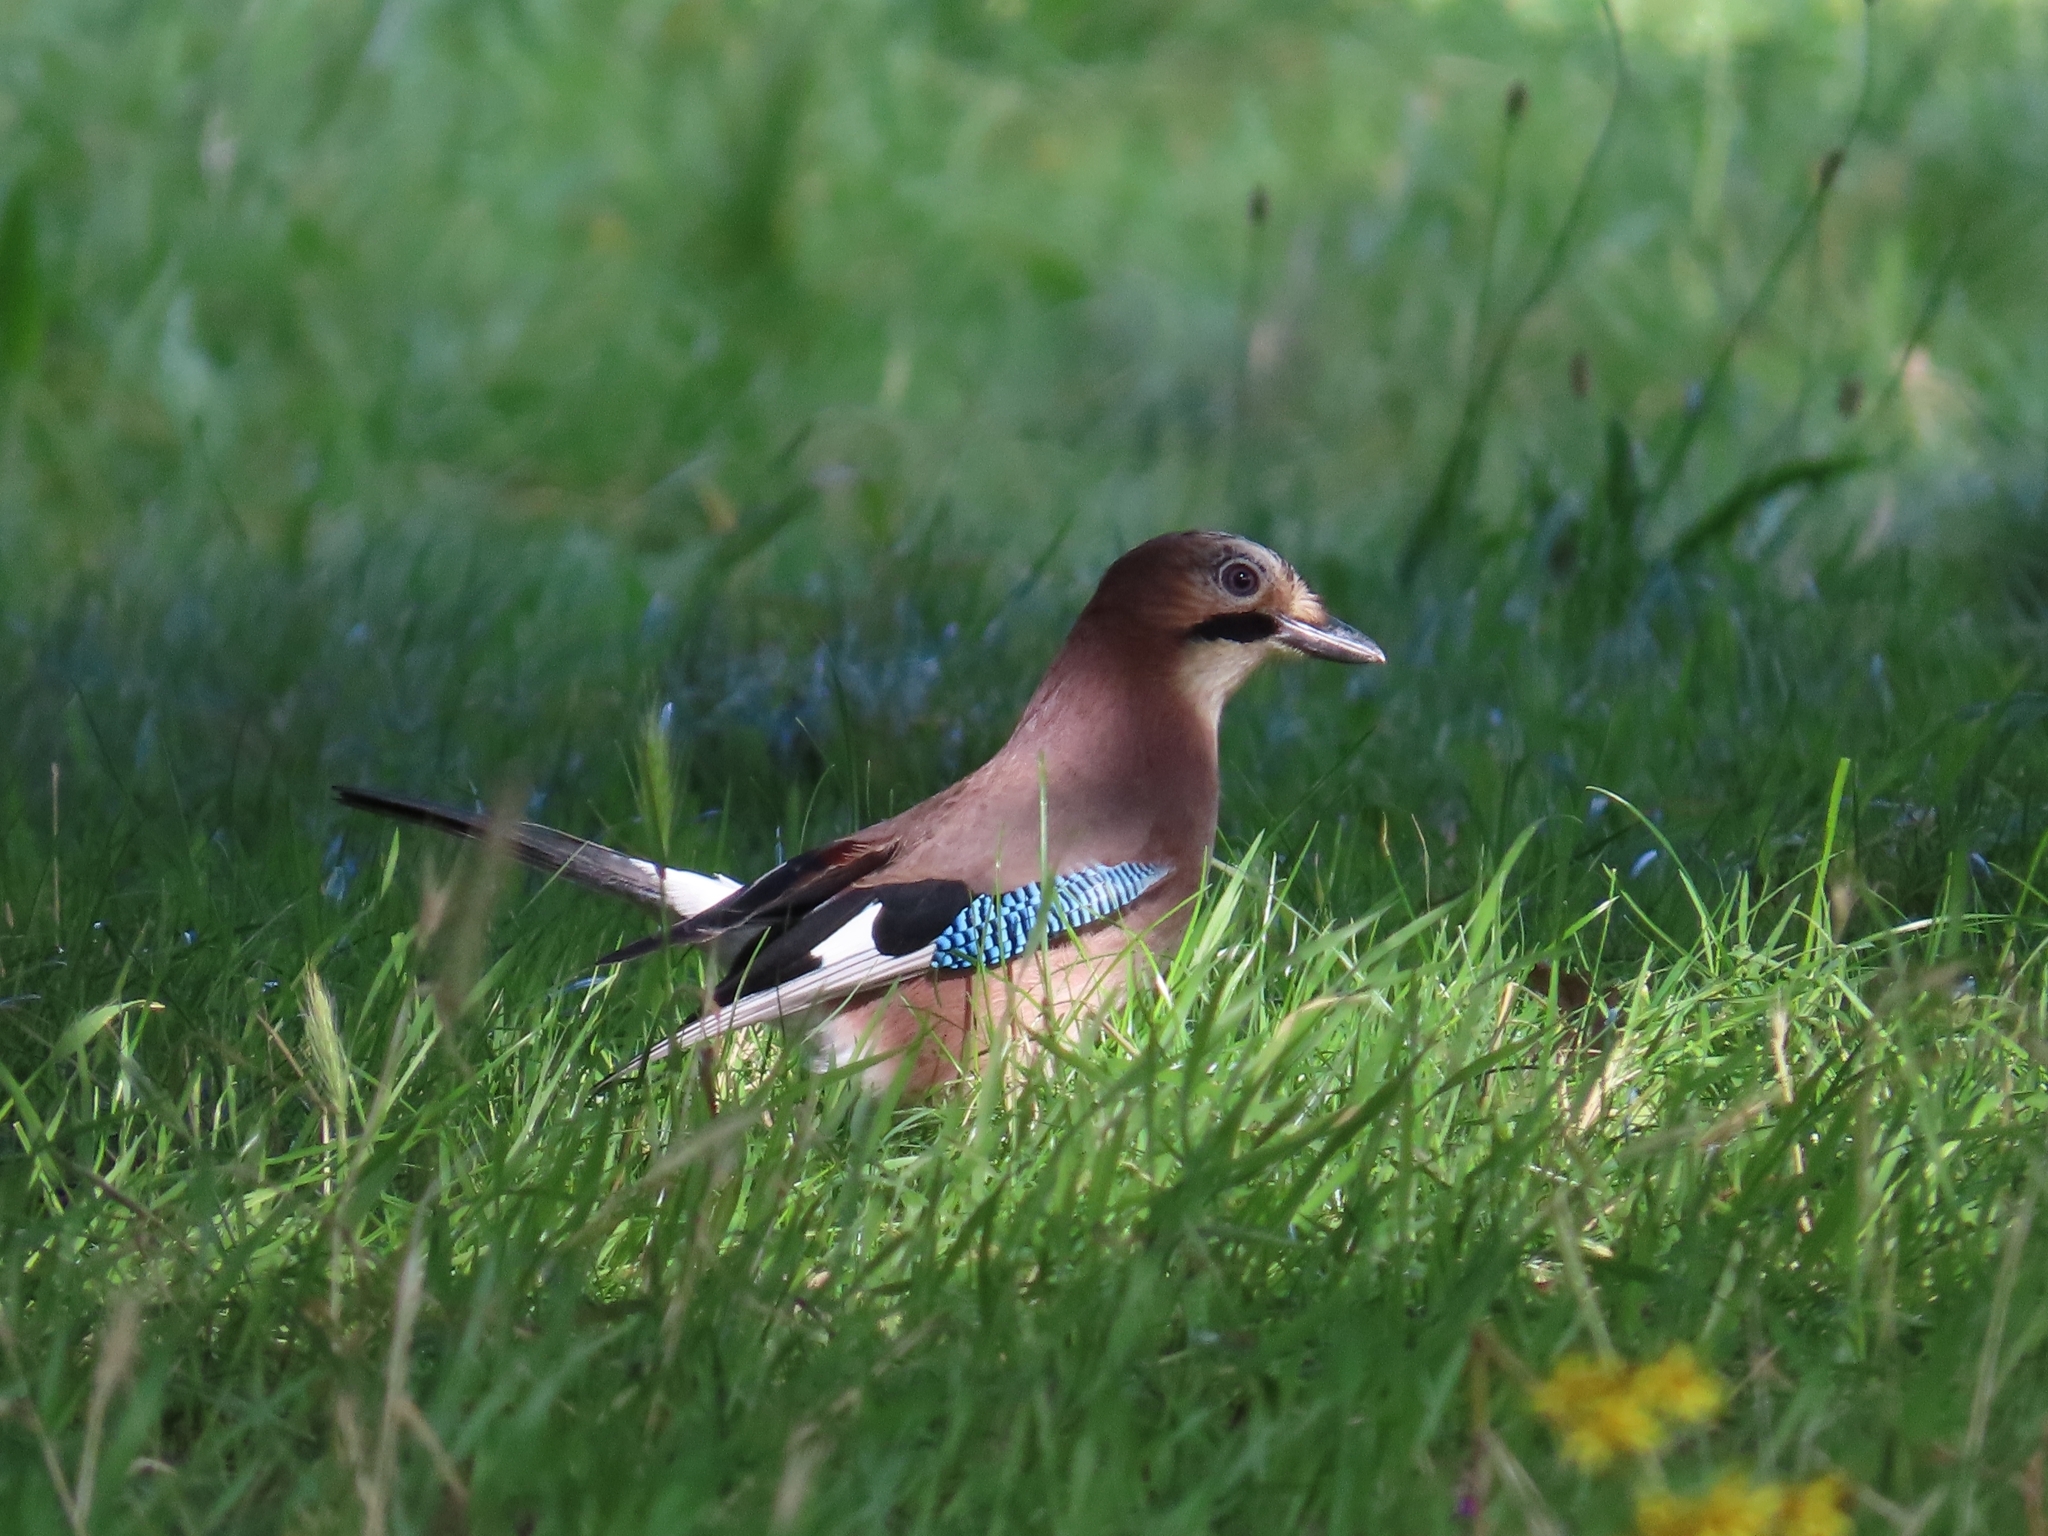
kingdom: Animalia
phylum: Chordata
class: Aves
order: Passeriformes
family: Corvidae
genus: Garrulus
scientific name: Garrulus glandarius
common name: Eurasian jay
